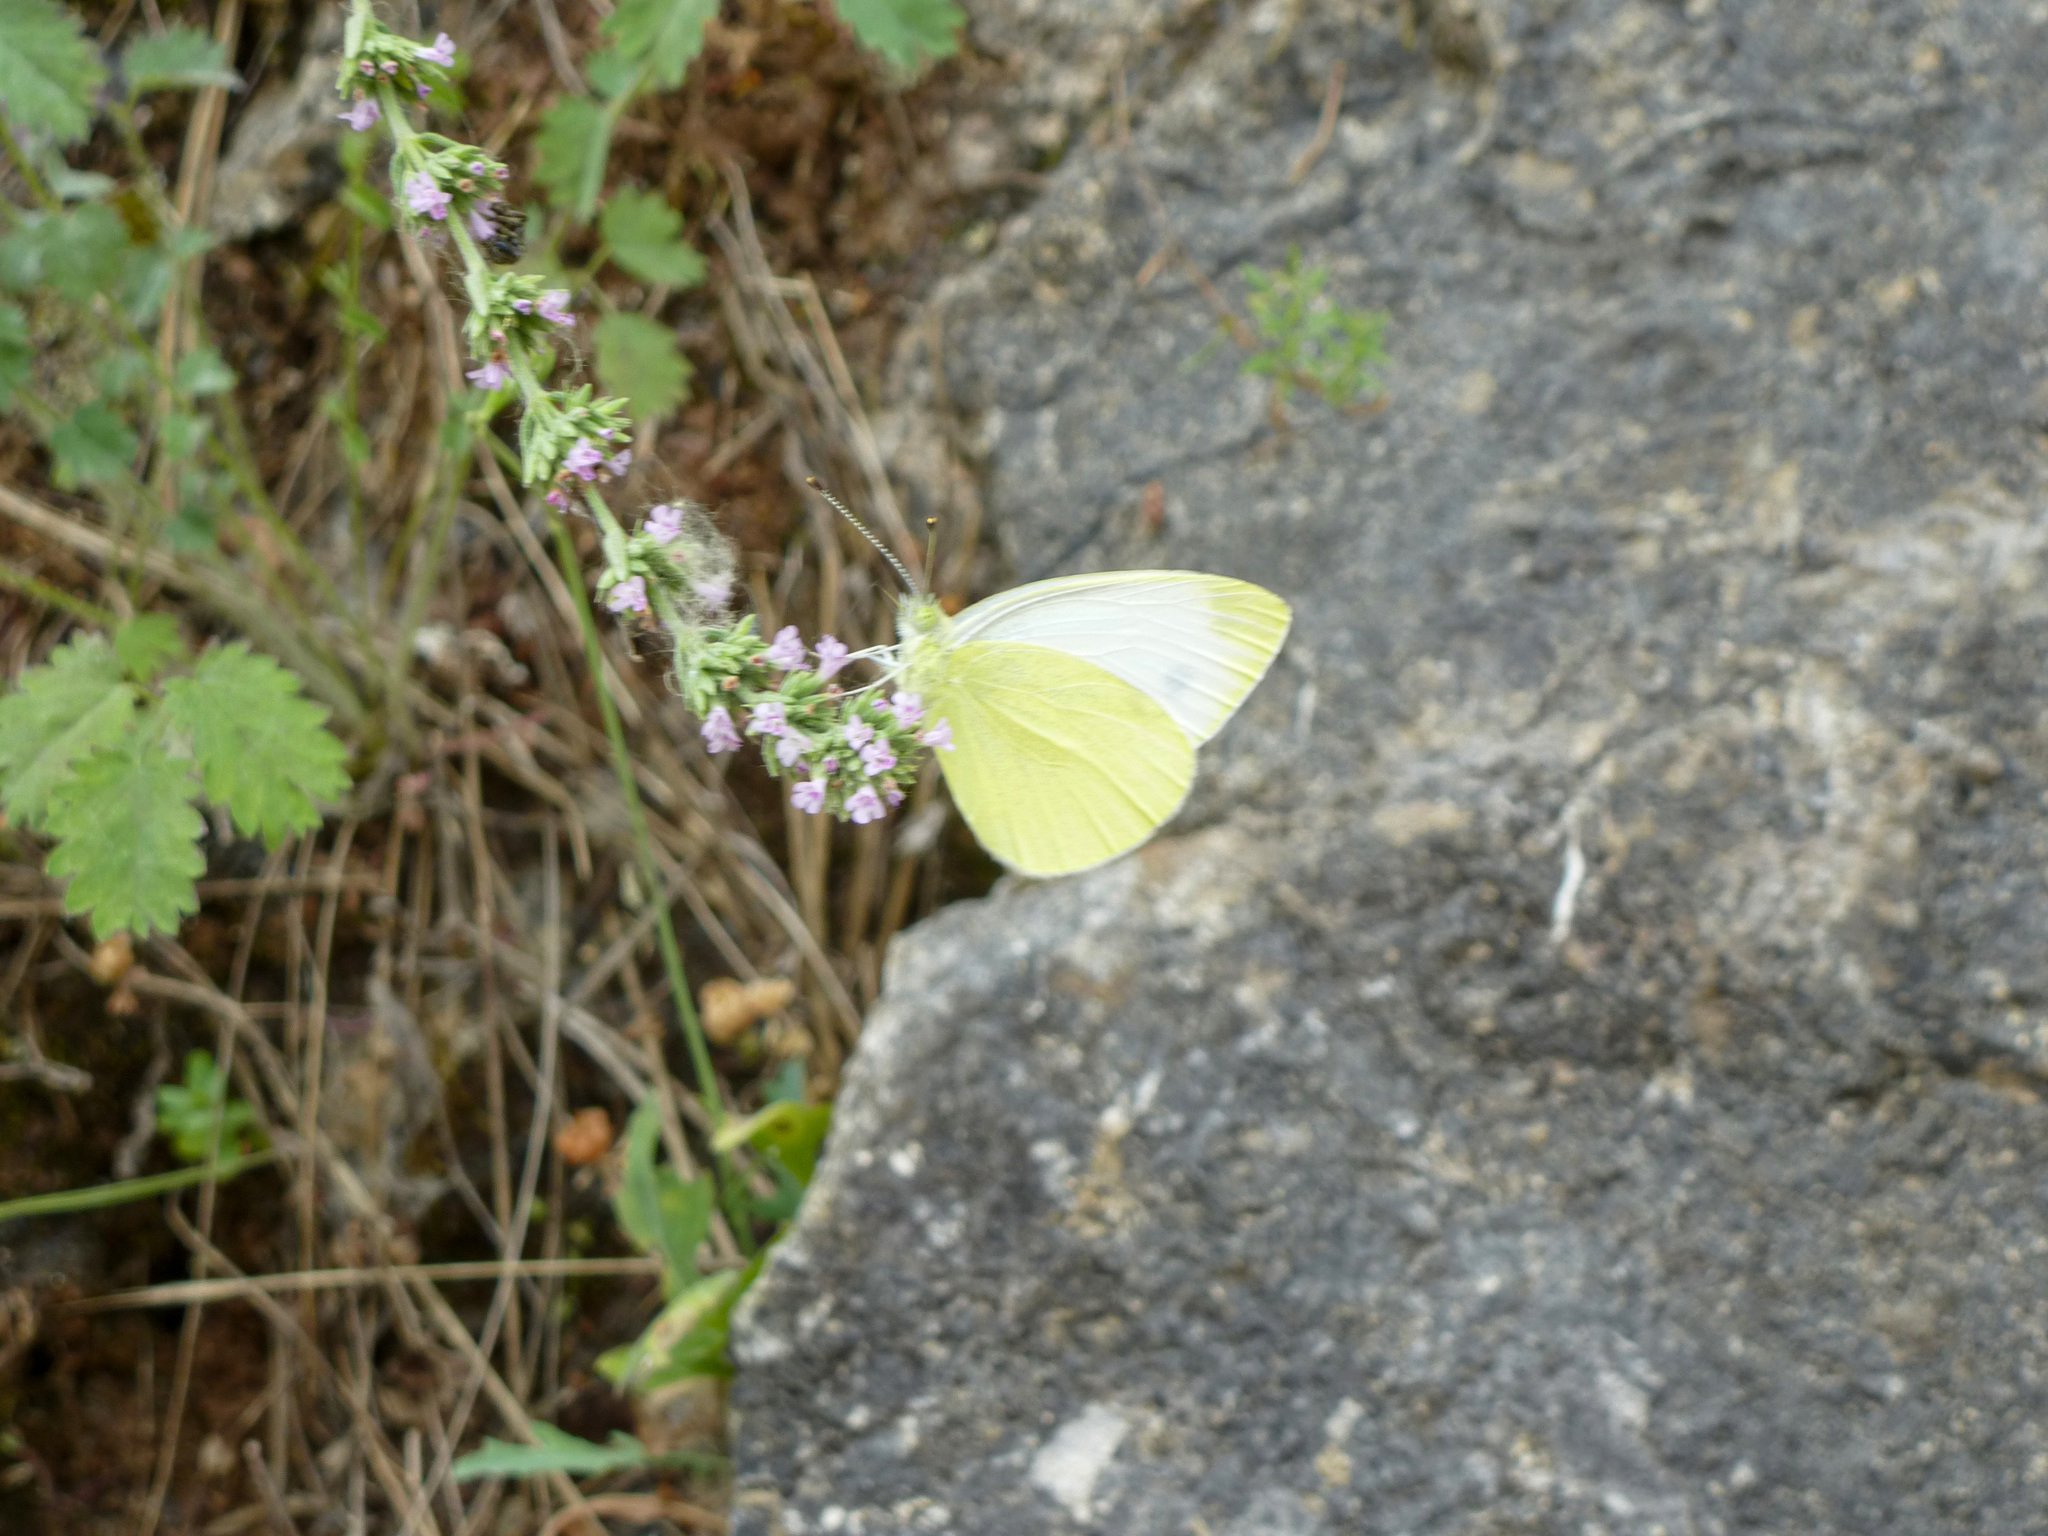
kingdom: Animalia
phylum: Arthropoda
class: Insecta
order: Lepidoptera
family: Pieridae
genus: Pieris
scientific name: Pieris ergane
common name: Mountain small white
